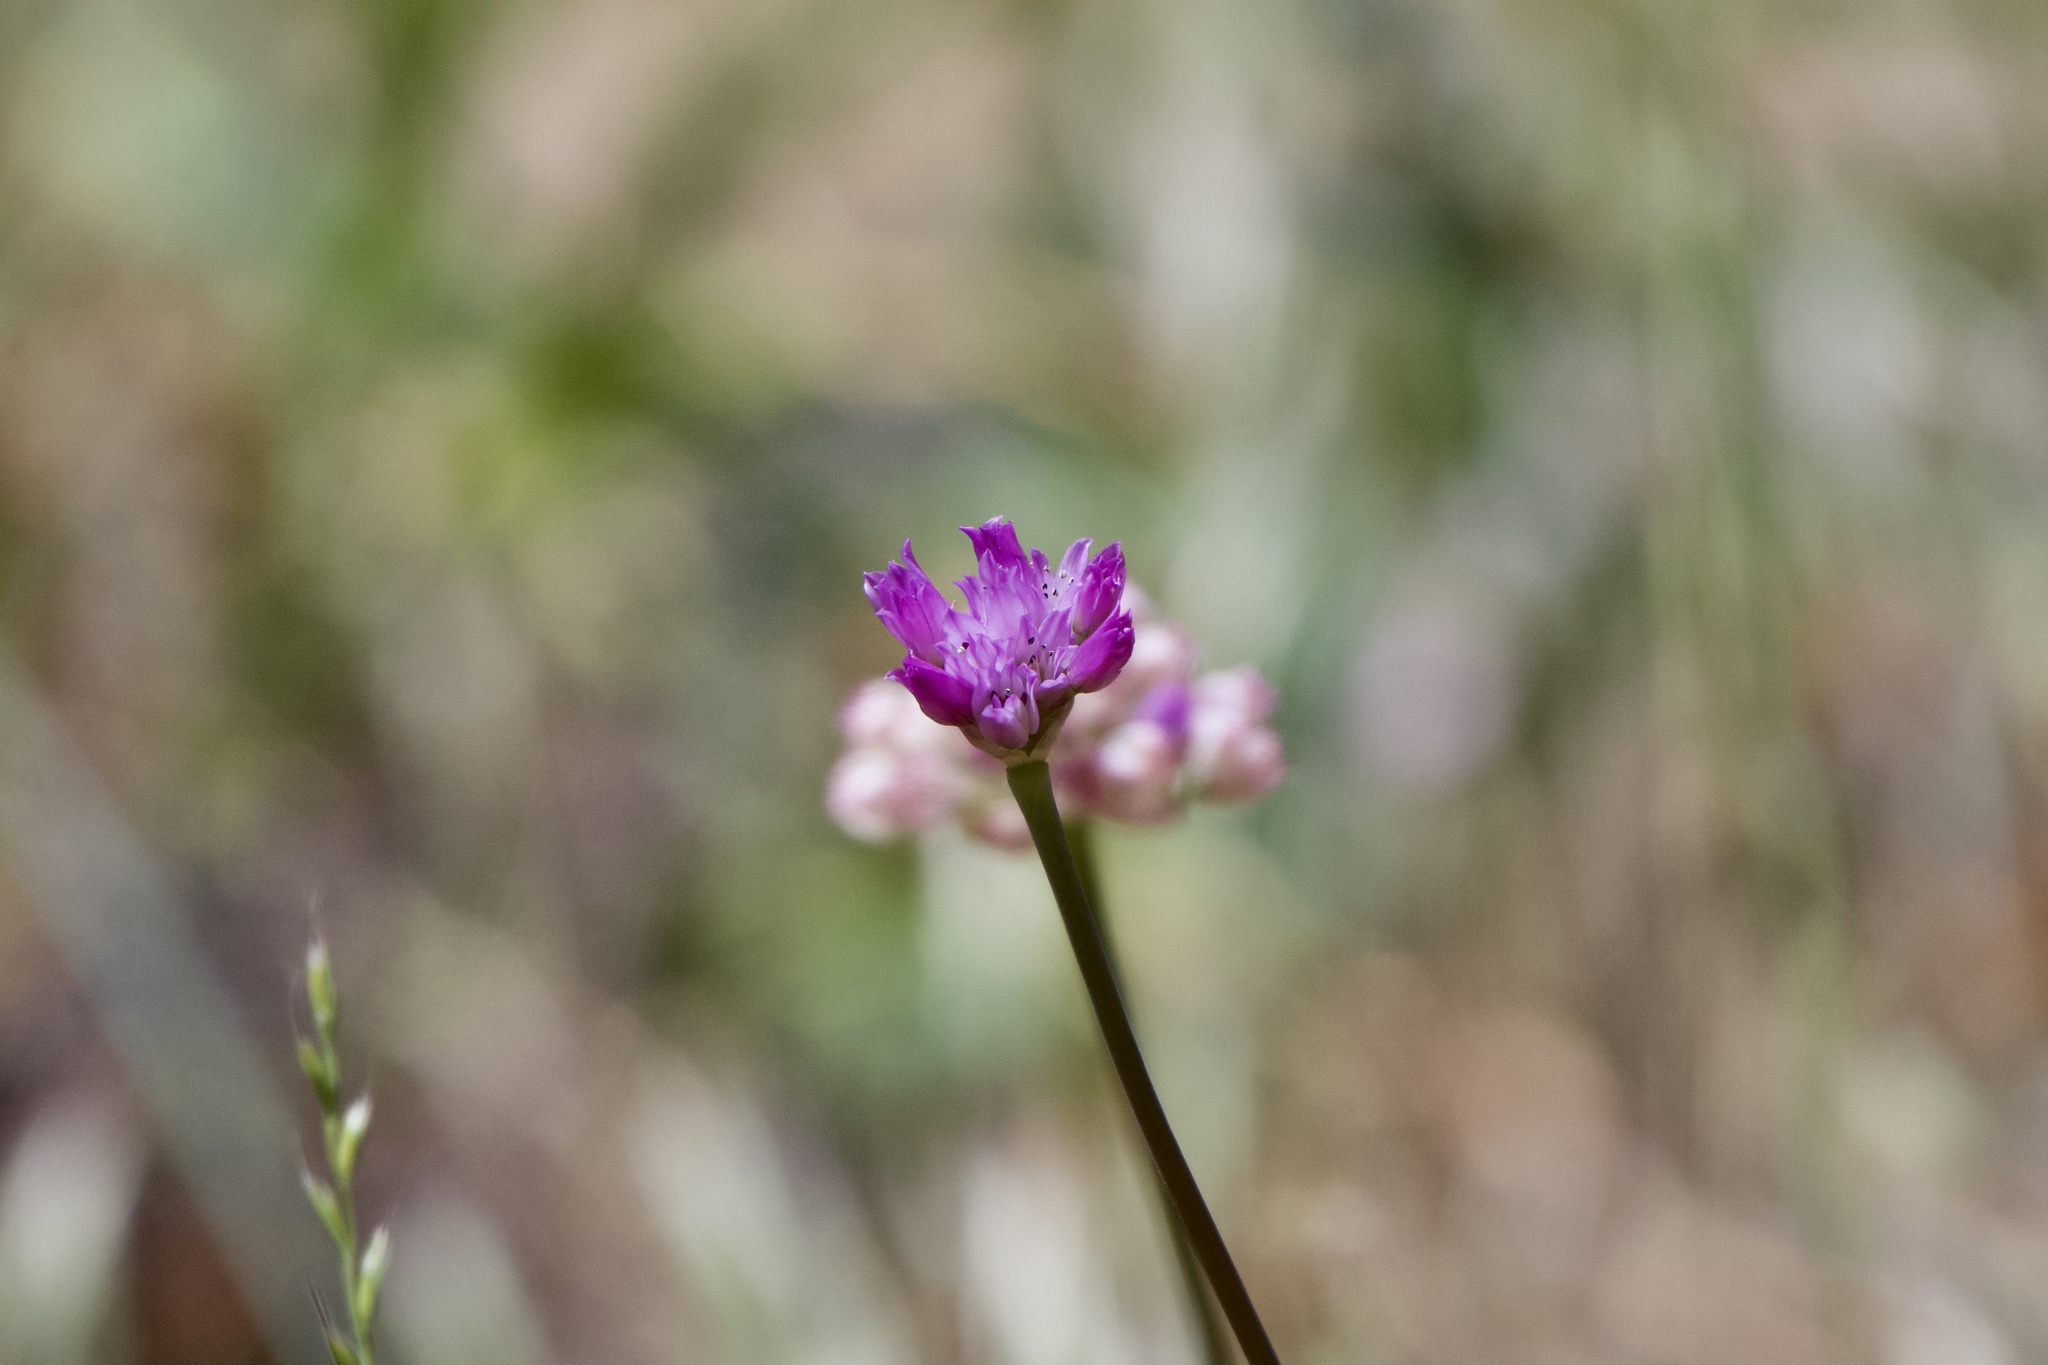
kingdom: Plantae
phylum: Tracheophyta
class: Liliopsida
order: Asparagales
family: Amaryllidaceae
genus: Allium
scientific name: Allium serra
